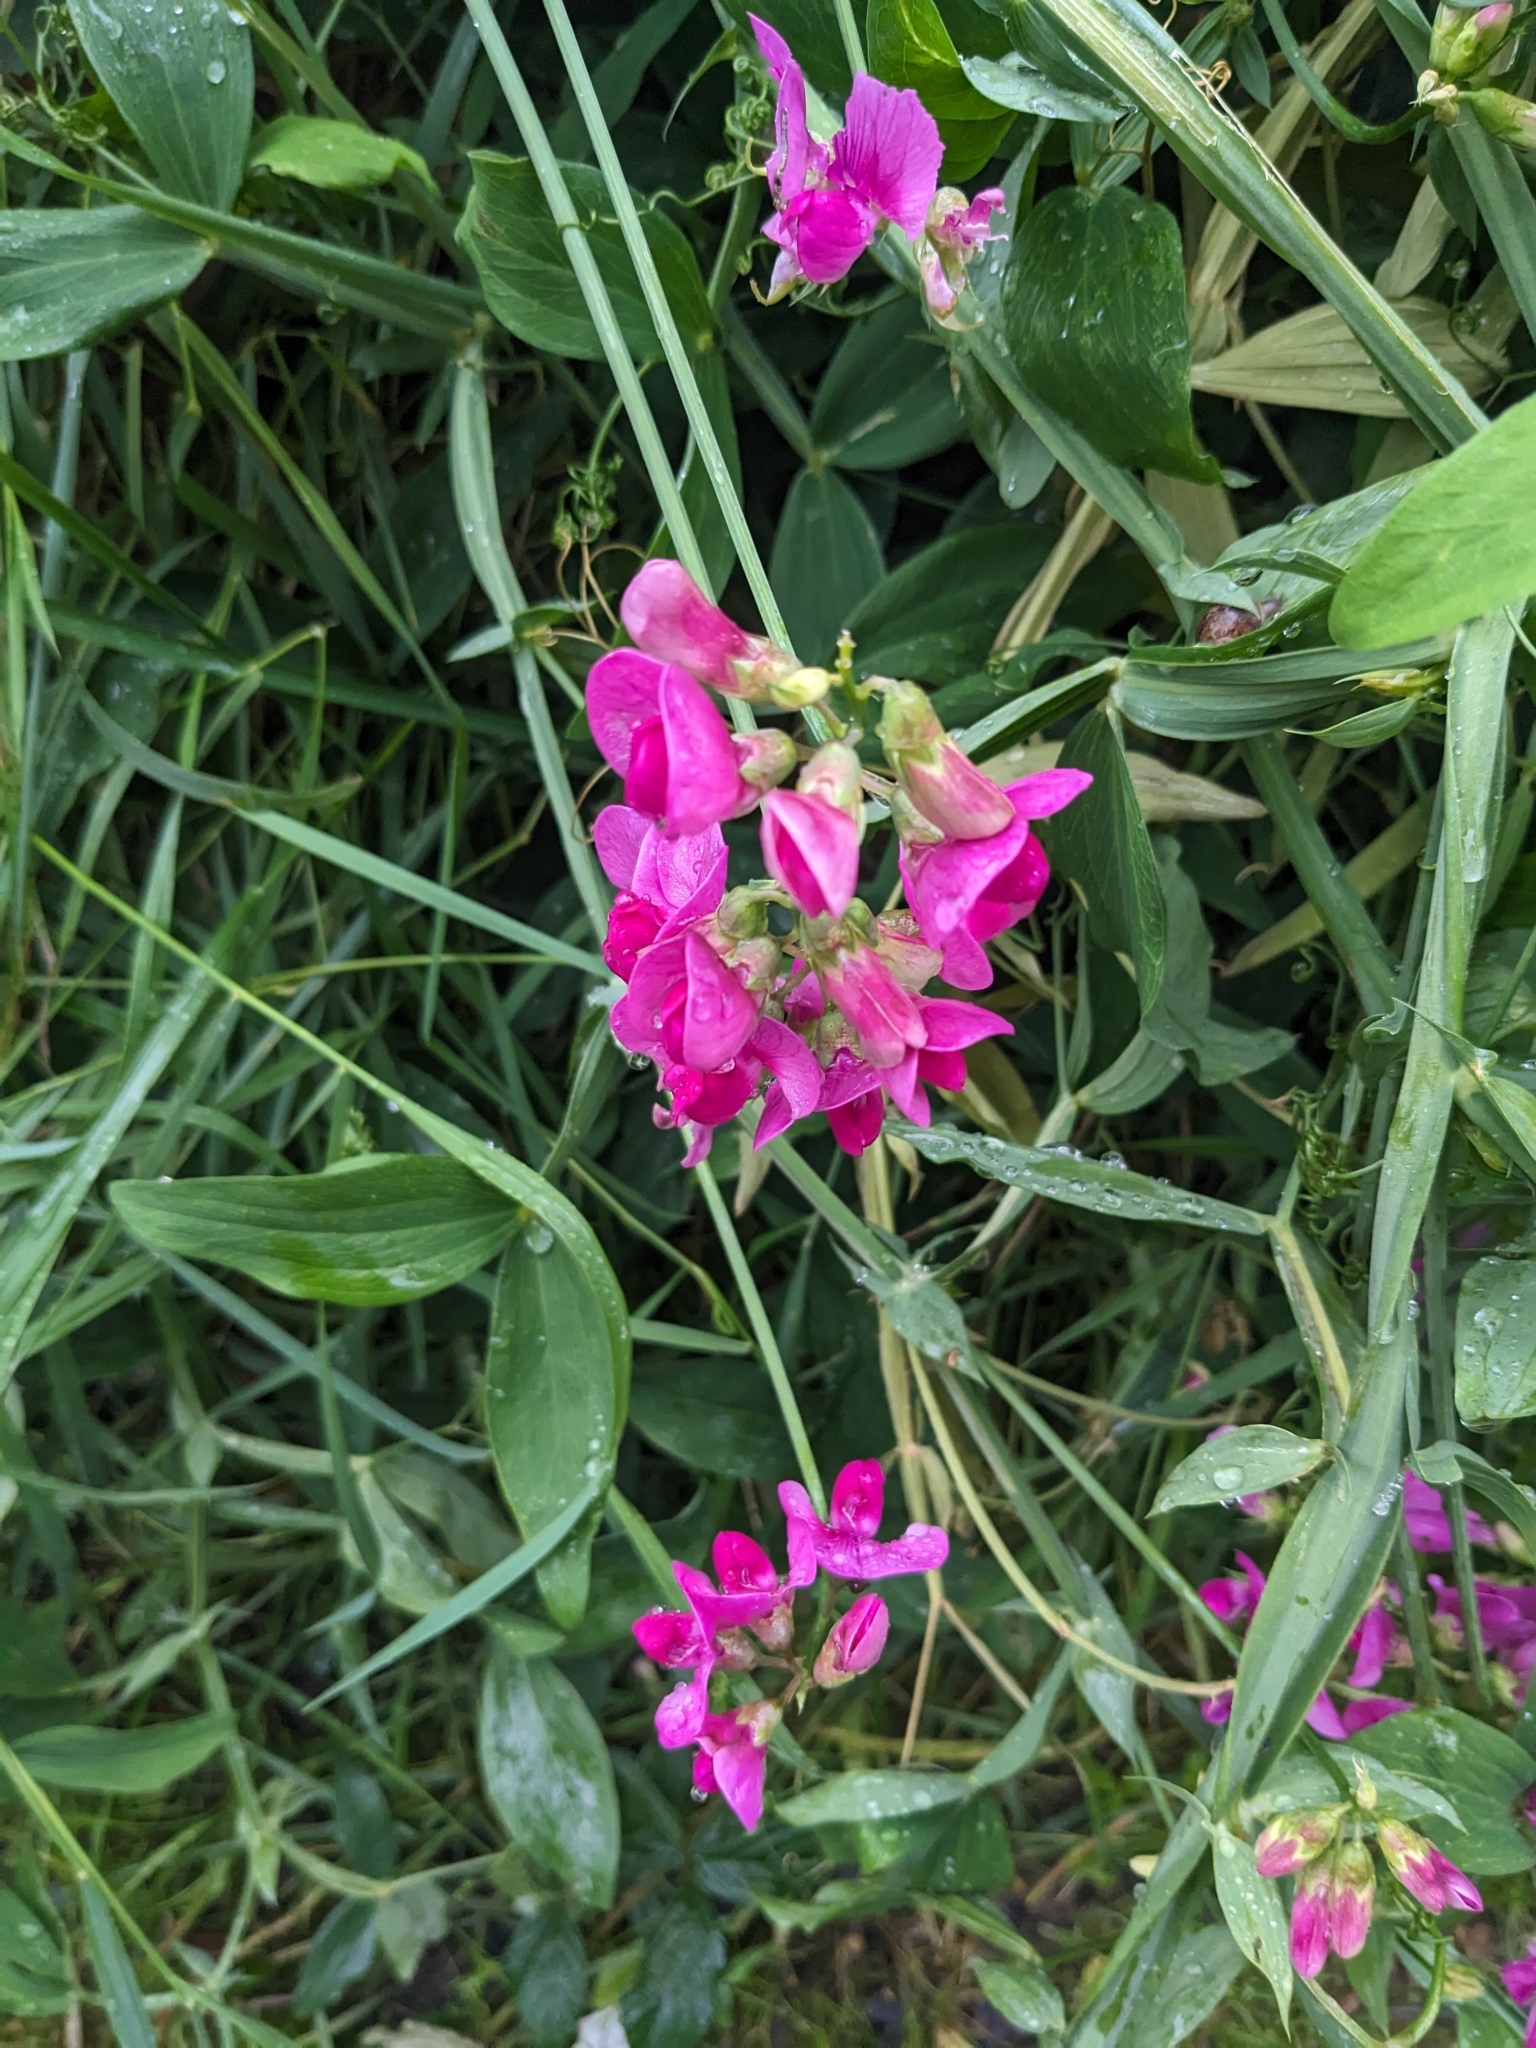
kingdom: Plantae
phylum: Tracheophyta
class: Magnoliopsida
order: Fabales
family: Fabaceae
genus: Lathyrus
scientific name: Lathyrus latifolius
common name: Perennial pea
